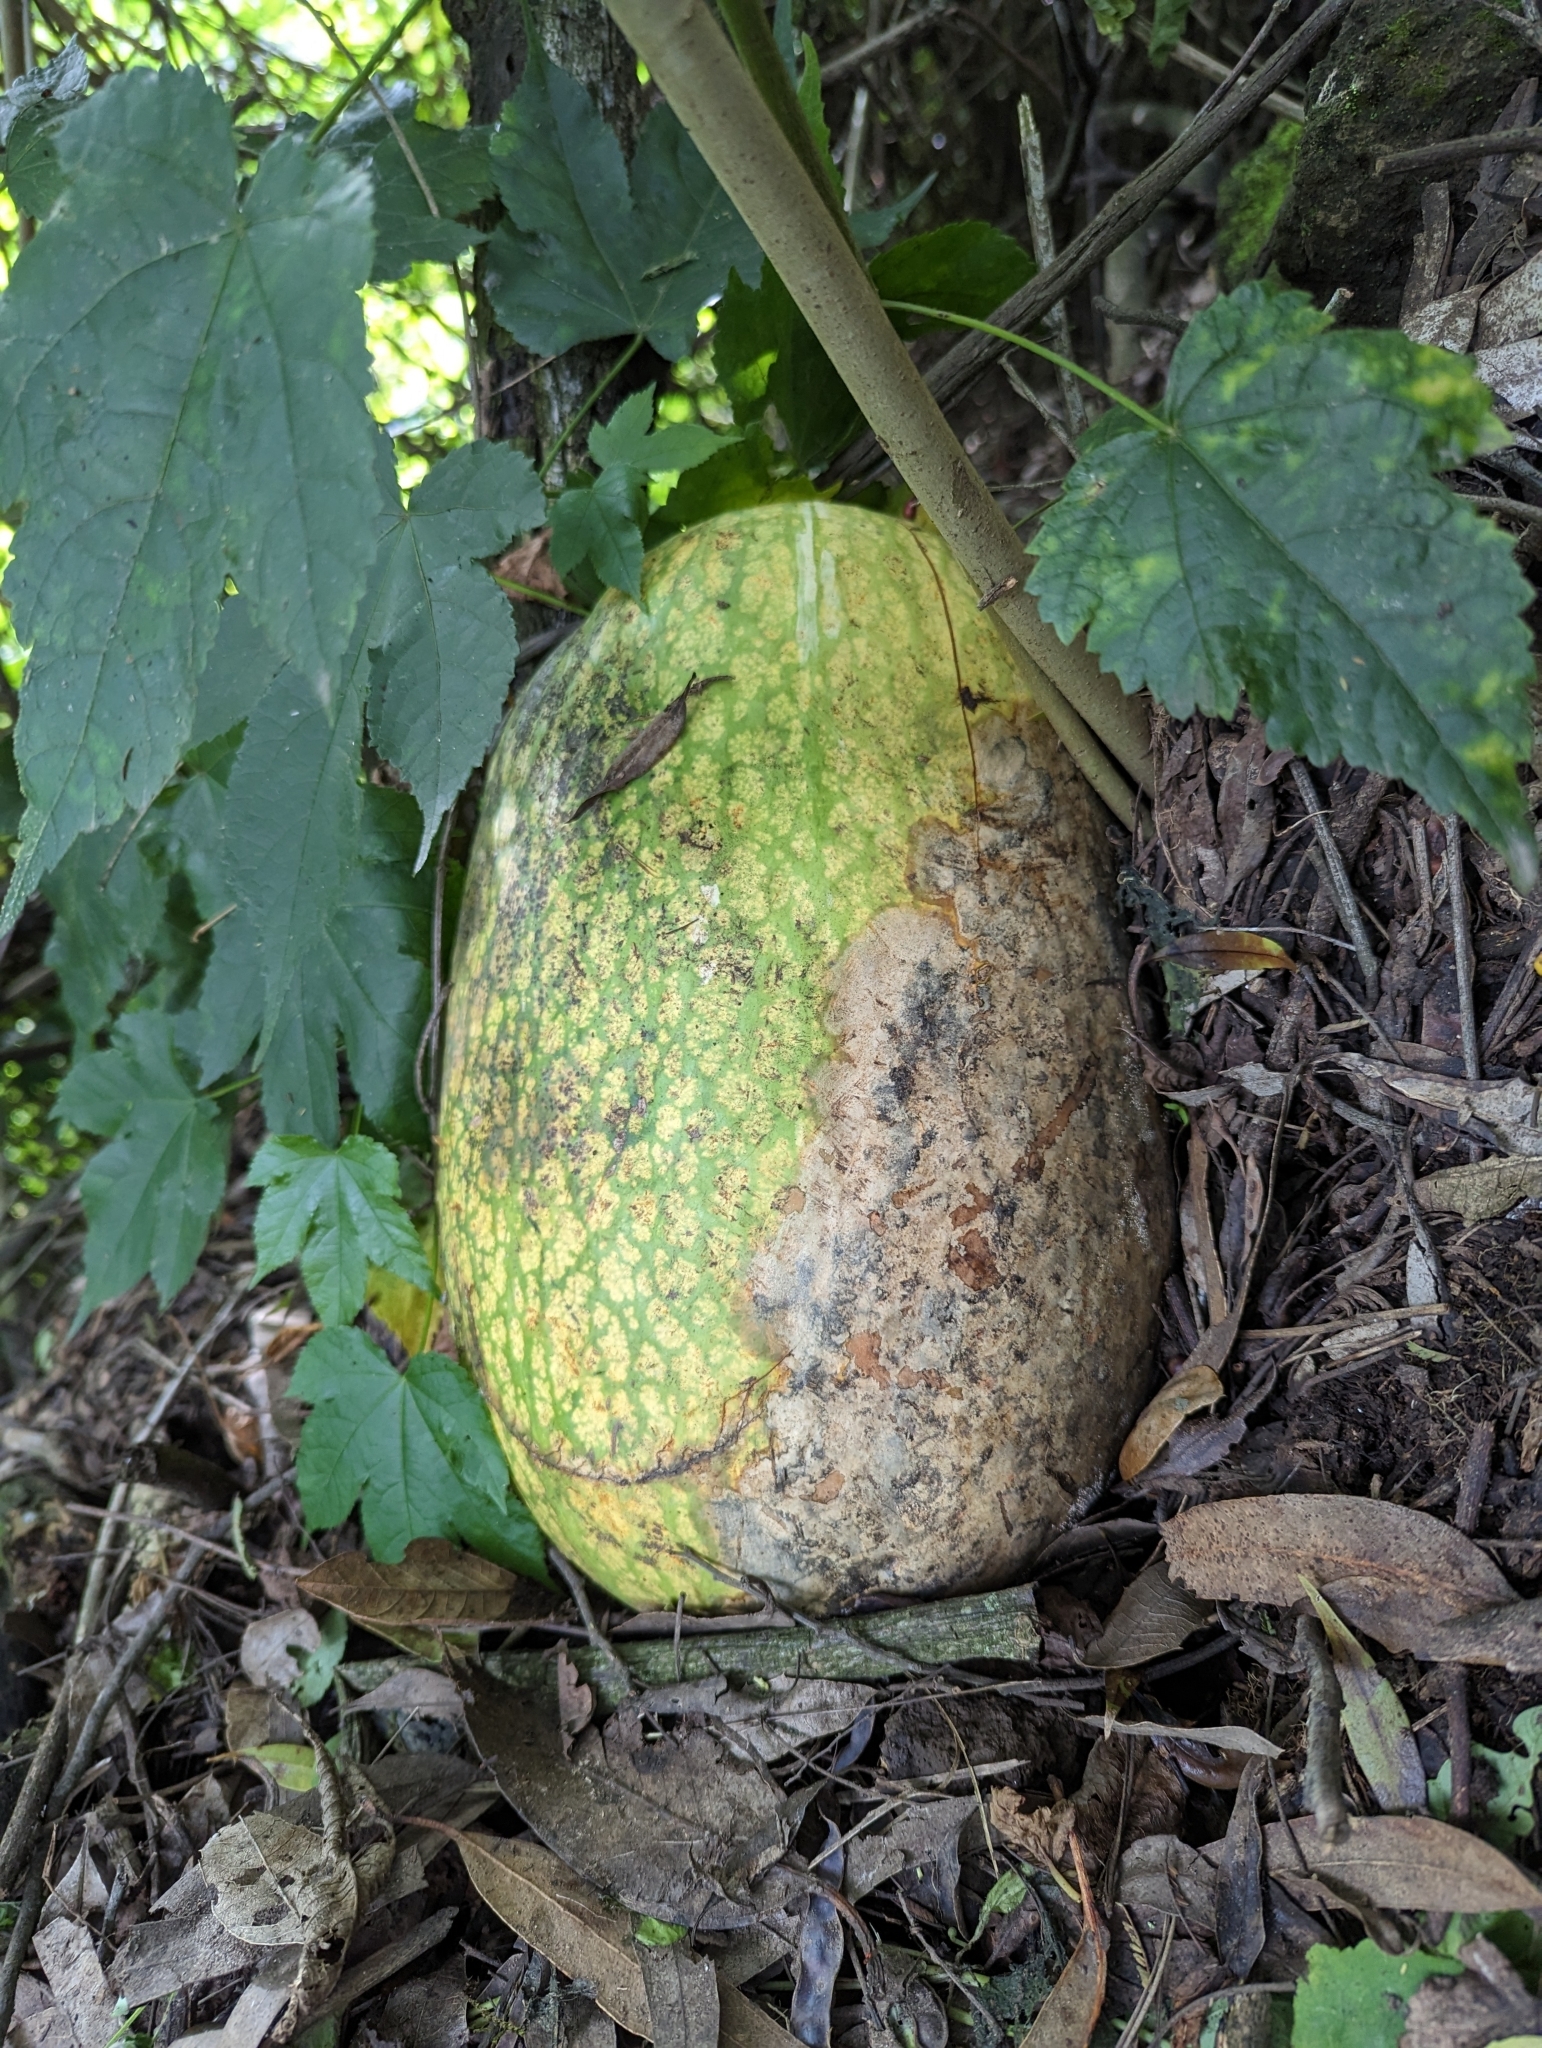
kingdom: Plantae
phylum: Tracheophyta
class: Magnoliopsida
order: Cucurbitales
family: Cucurbitaceae
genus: Cucurbita
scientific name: Cucurbita ficifolia
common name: Figleaf gourd
